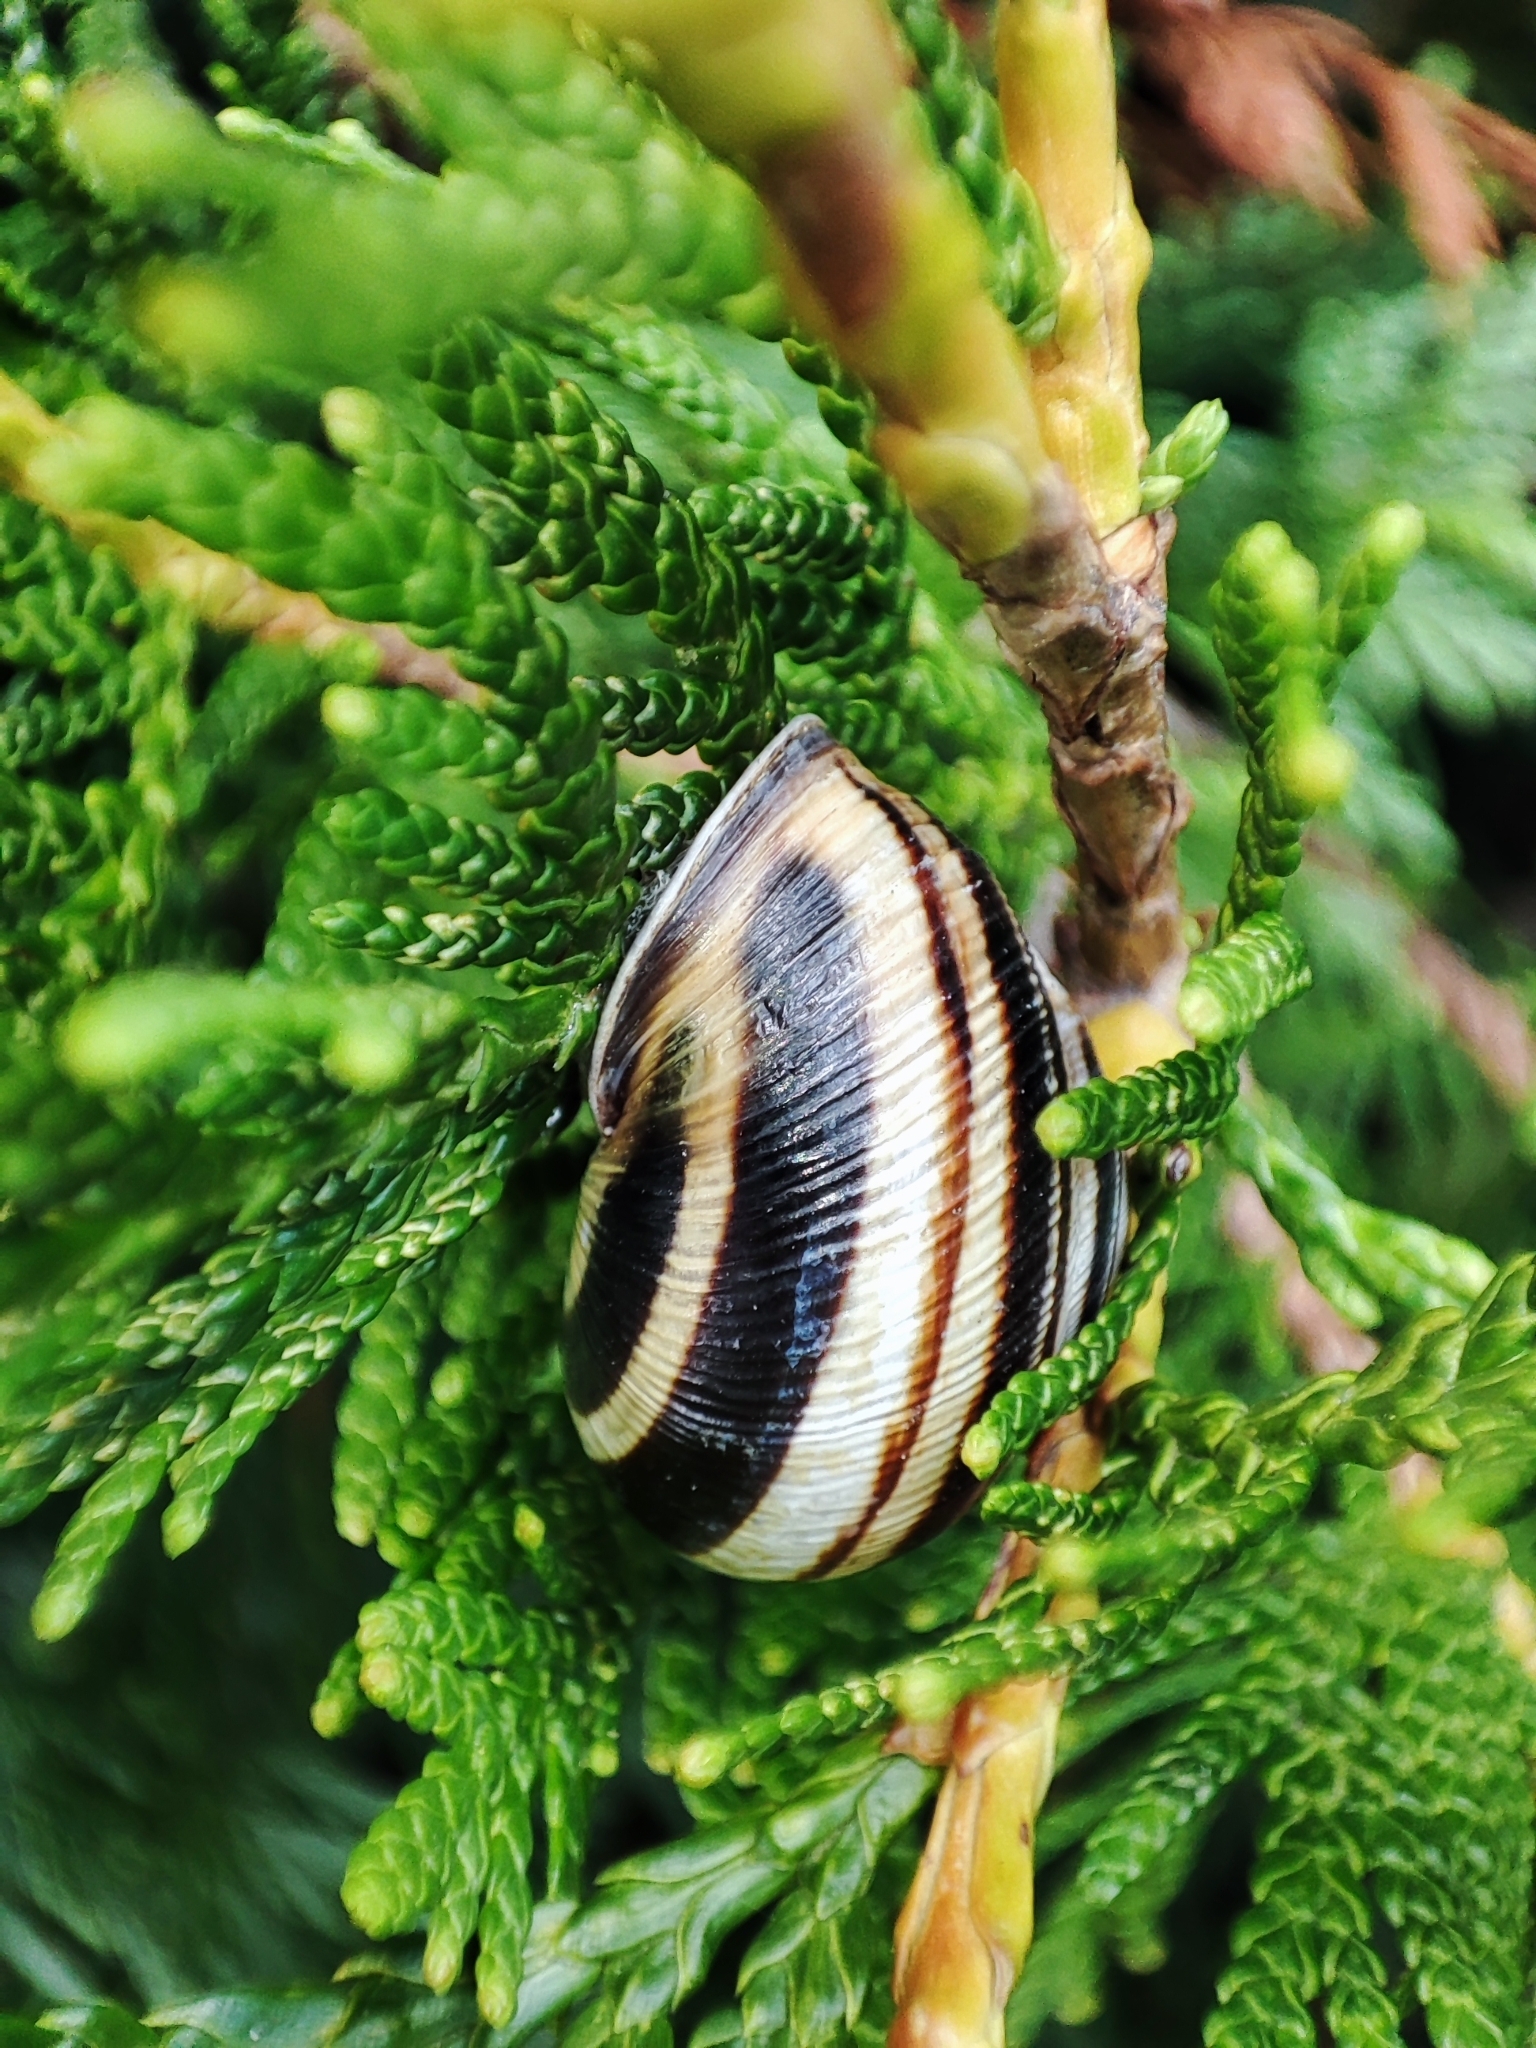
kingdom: Animalia
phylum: Mollusca
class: Gastropoda
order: Stylommatophora
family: Helicidae
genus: Caucasotachea
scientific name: Caucasotachea vindobonensis
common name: European helicid land snail
